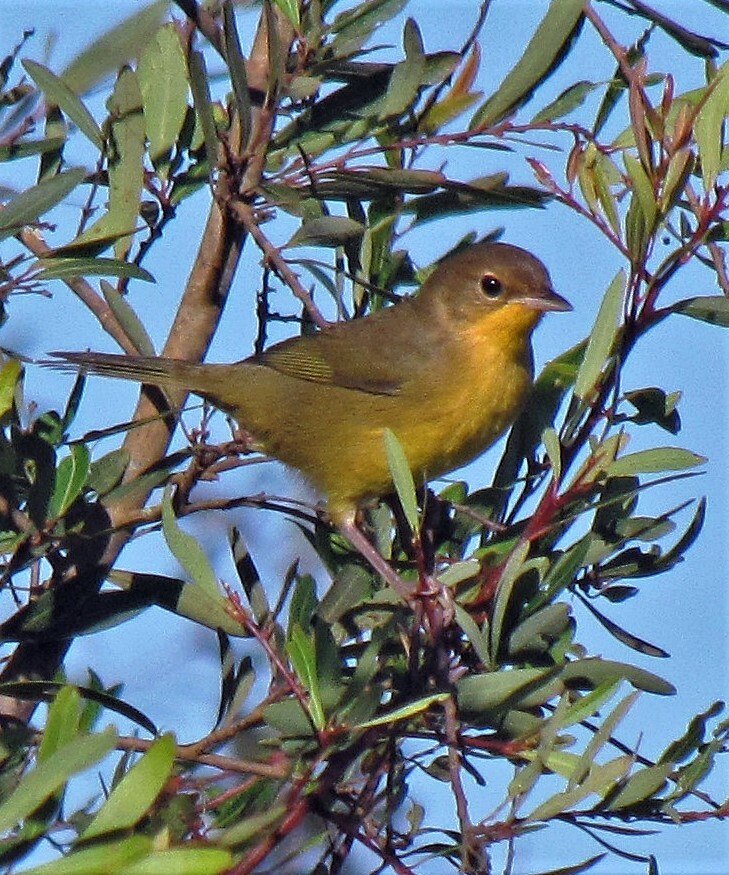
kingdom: Animalia
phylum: Chordata
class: Aves
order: Passeriformes
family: Parulidae
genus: Geothlypis
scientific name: Geothlypis velata
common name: Southern yellowthroat
